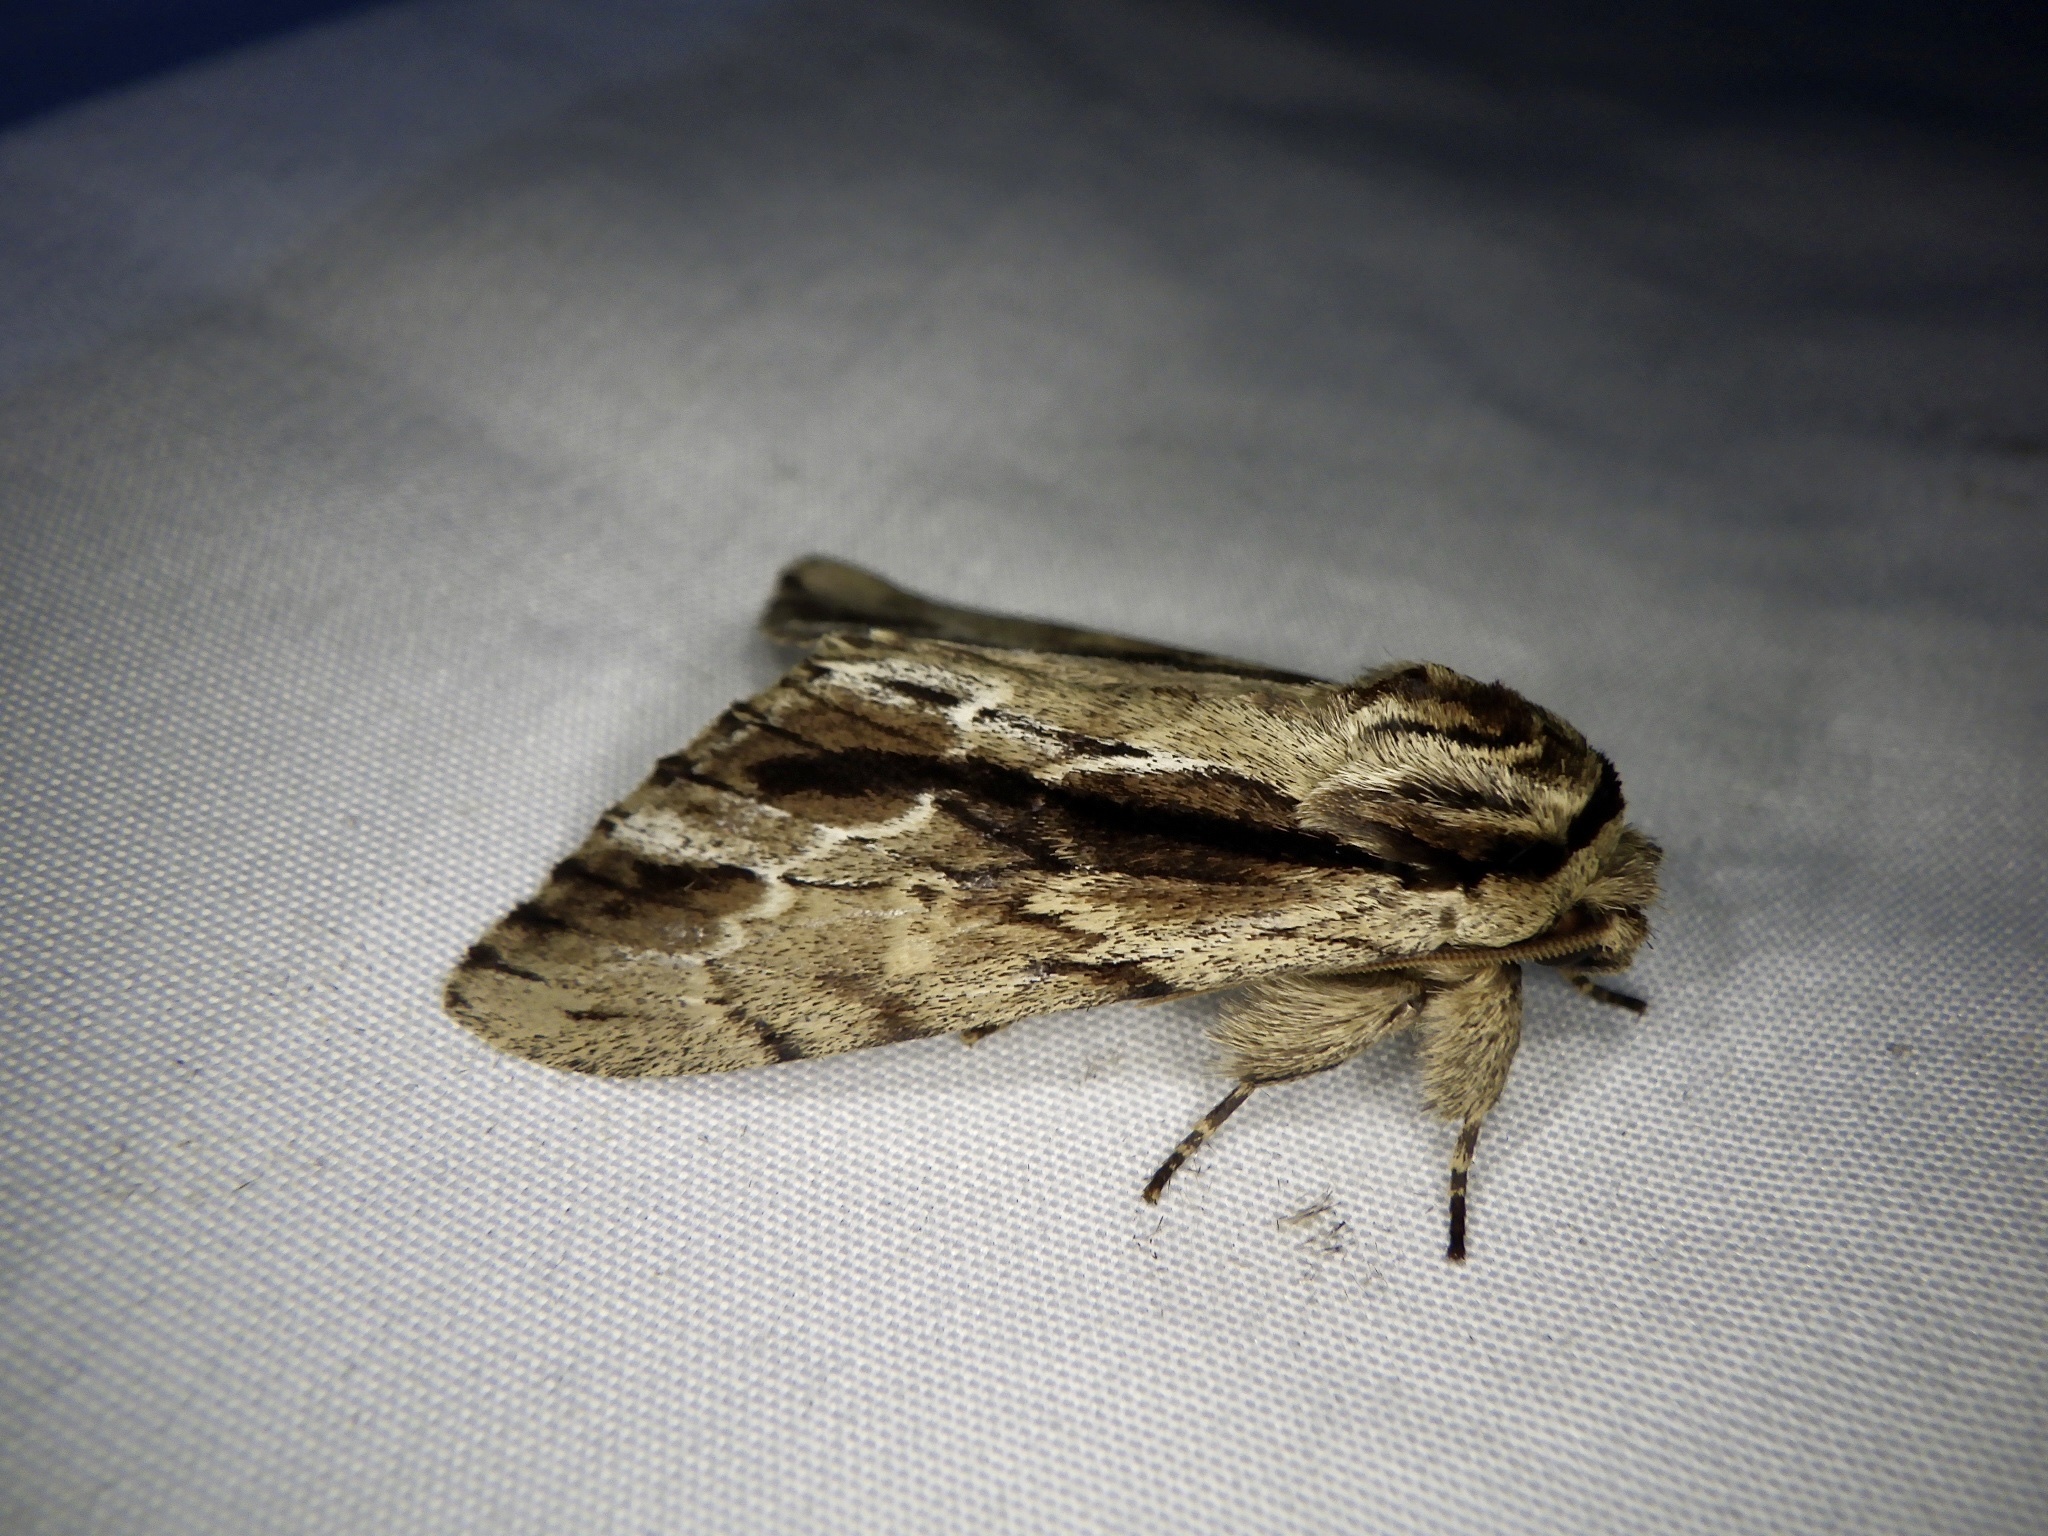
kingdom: Animalia
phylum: Arthropoda
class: Insecta
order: Lepidoptera
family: Notodontidae
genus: Shaka
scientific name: Shaka atrovittatus
